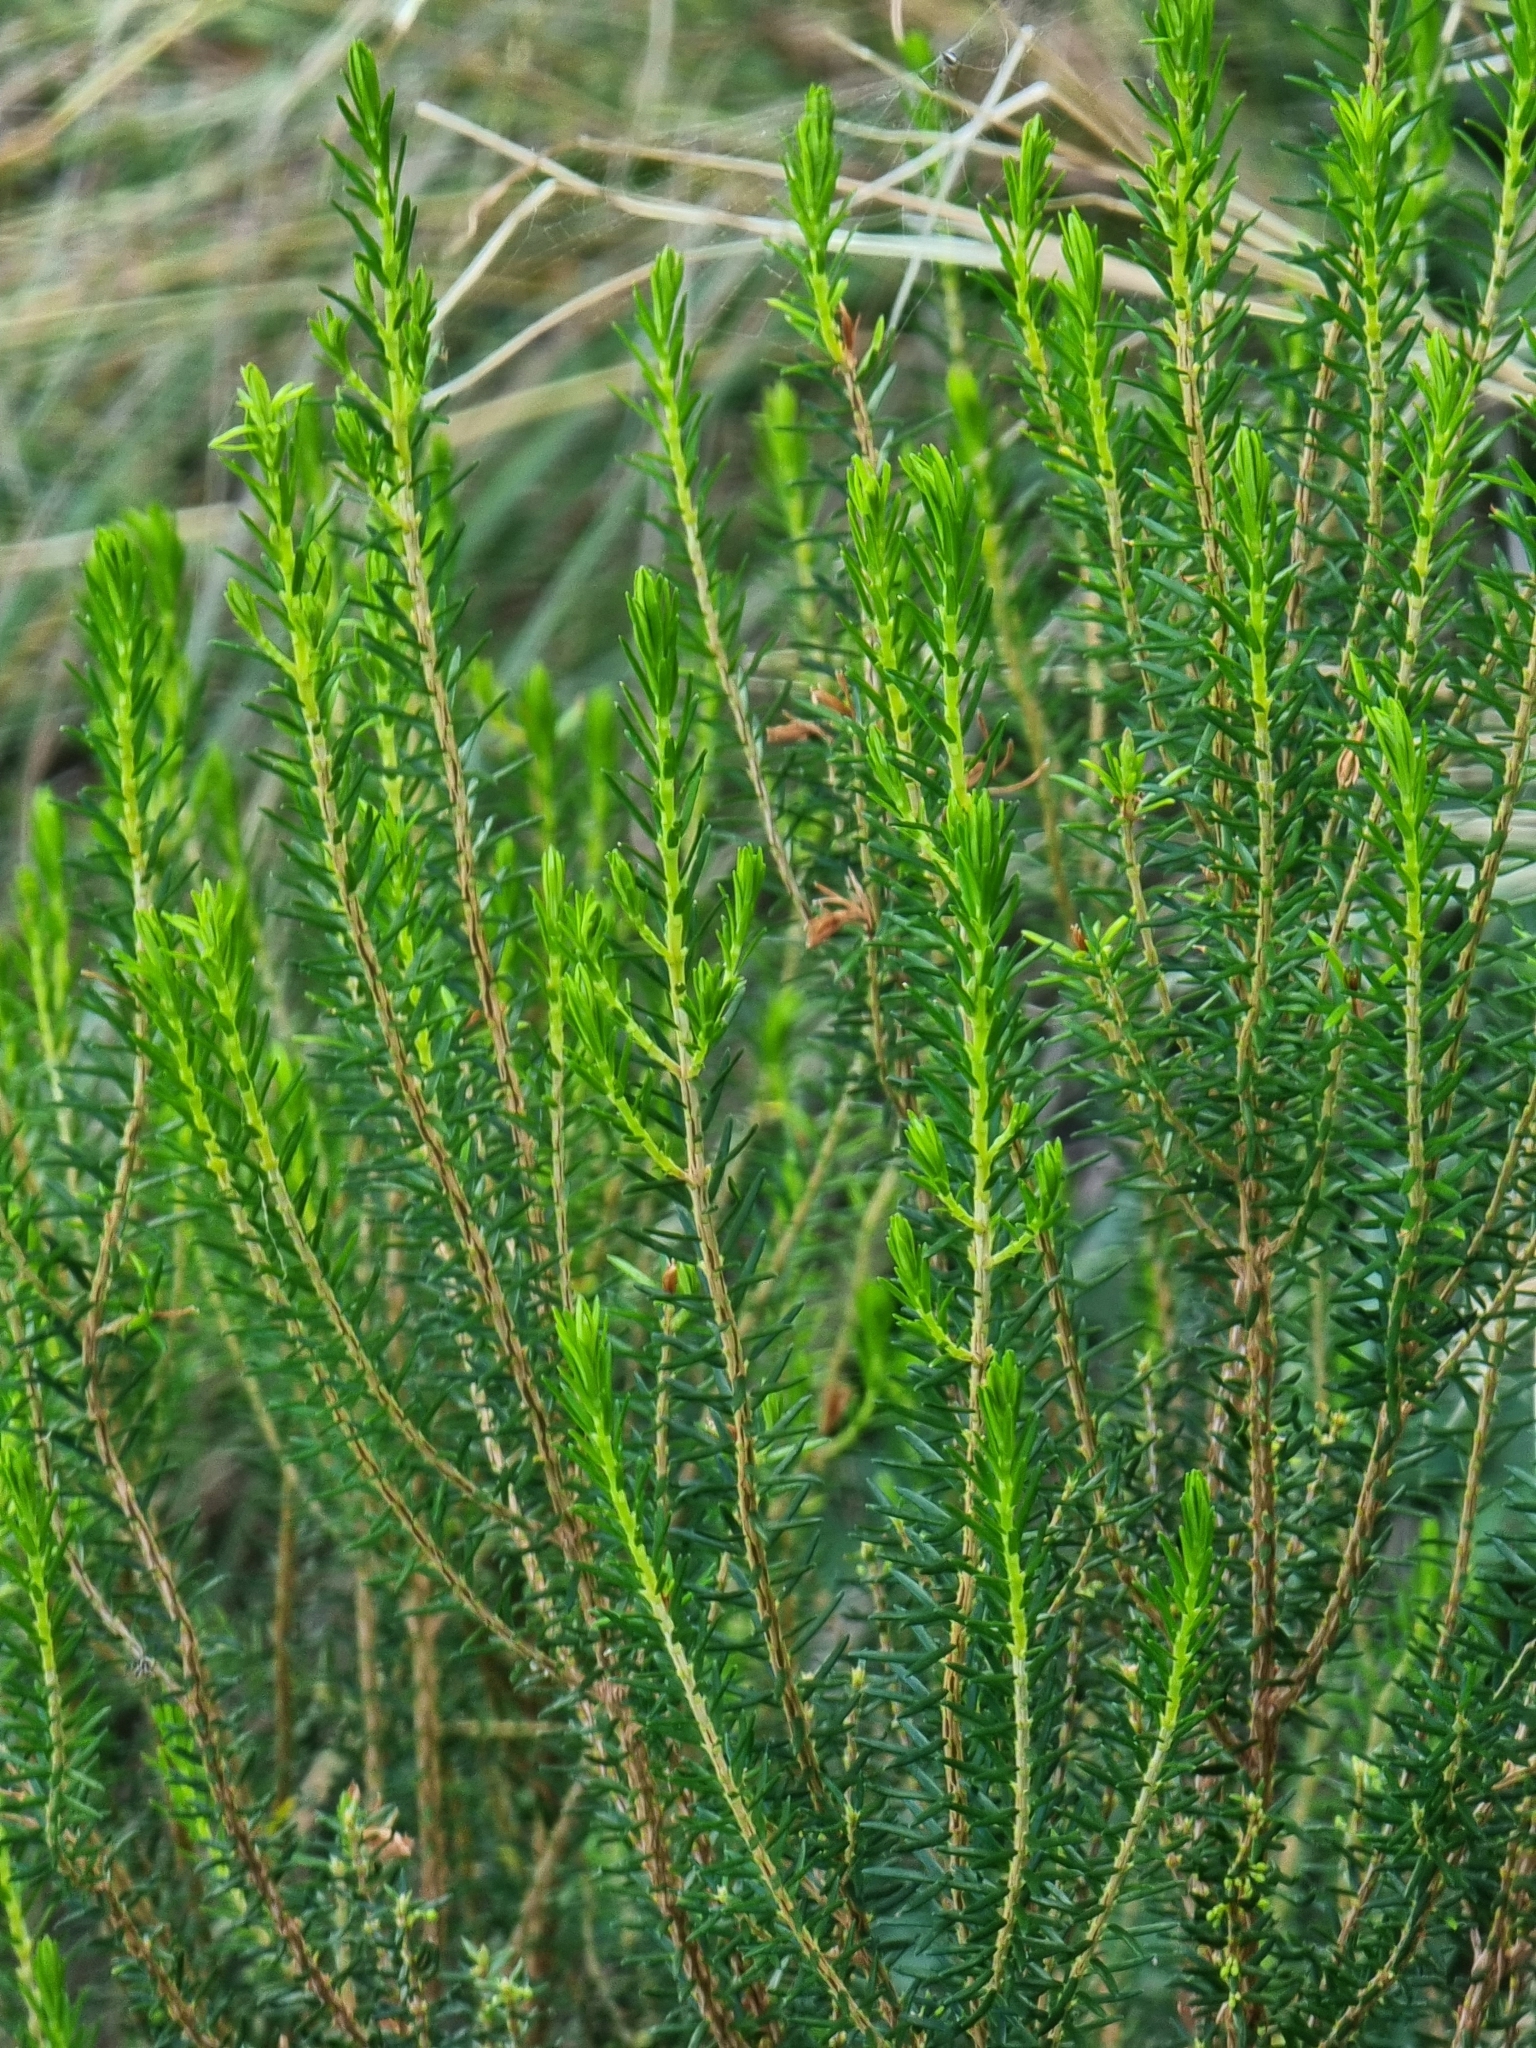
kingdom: Plantae
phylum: Tracheophyta
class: Magnoliopsida
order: Ericales
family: Ericaceae
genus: Erica
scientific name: Erica platycodon
